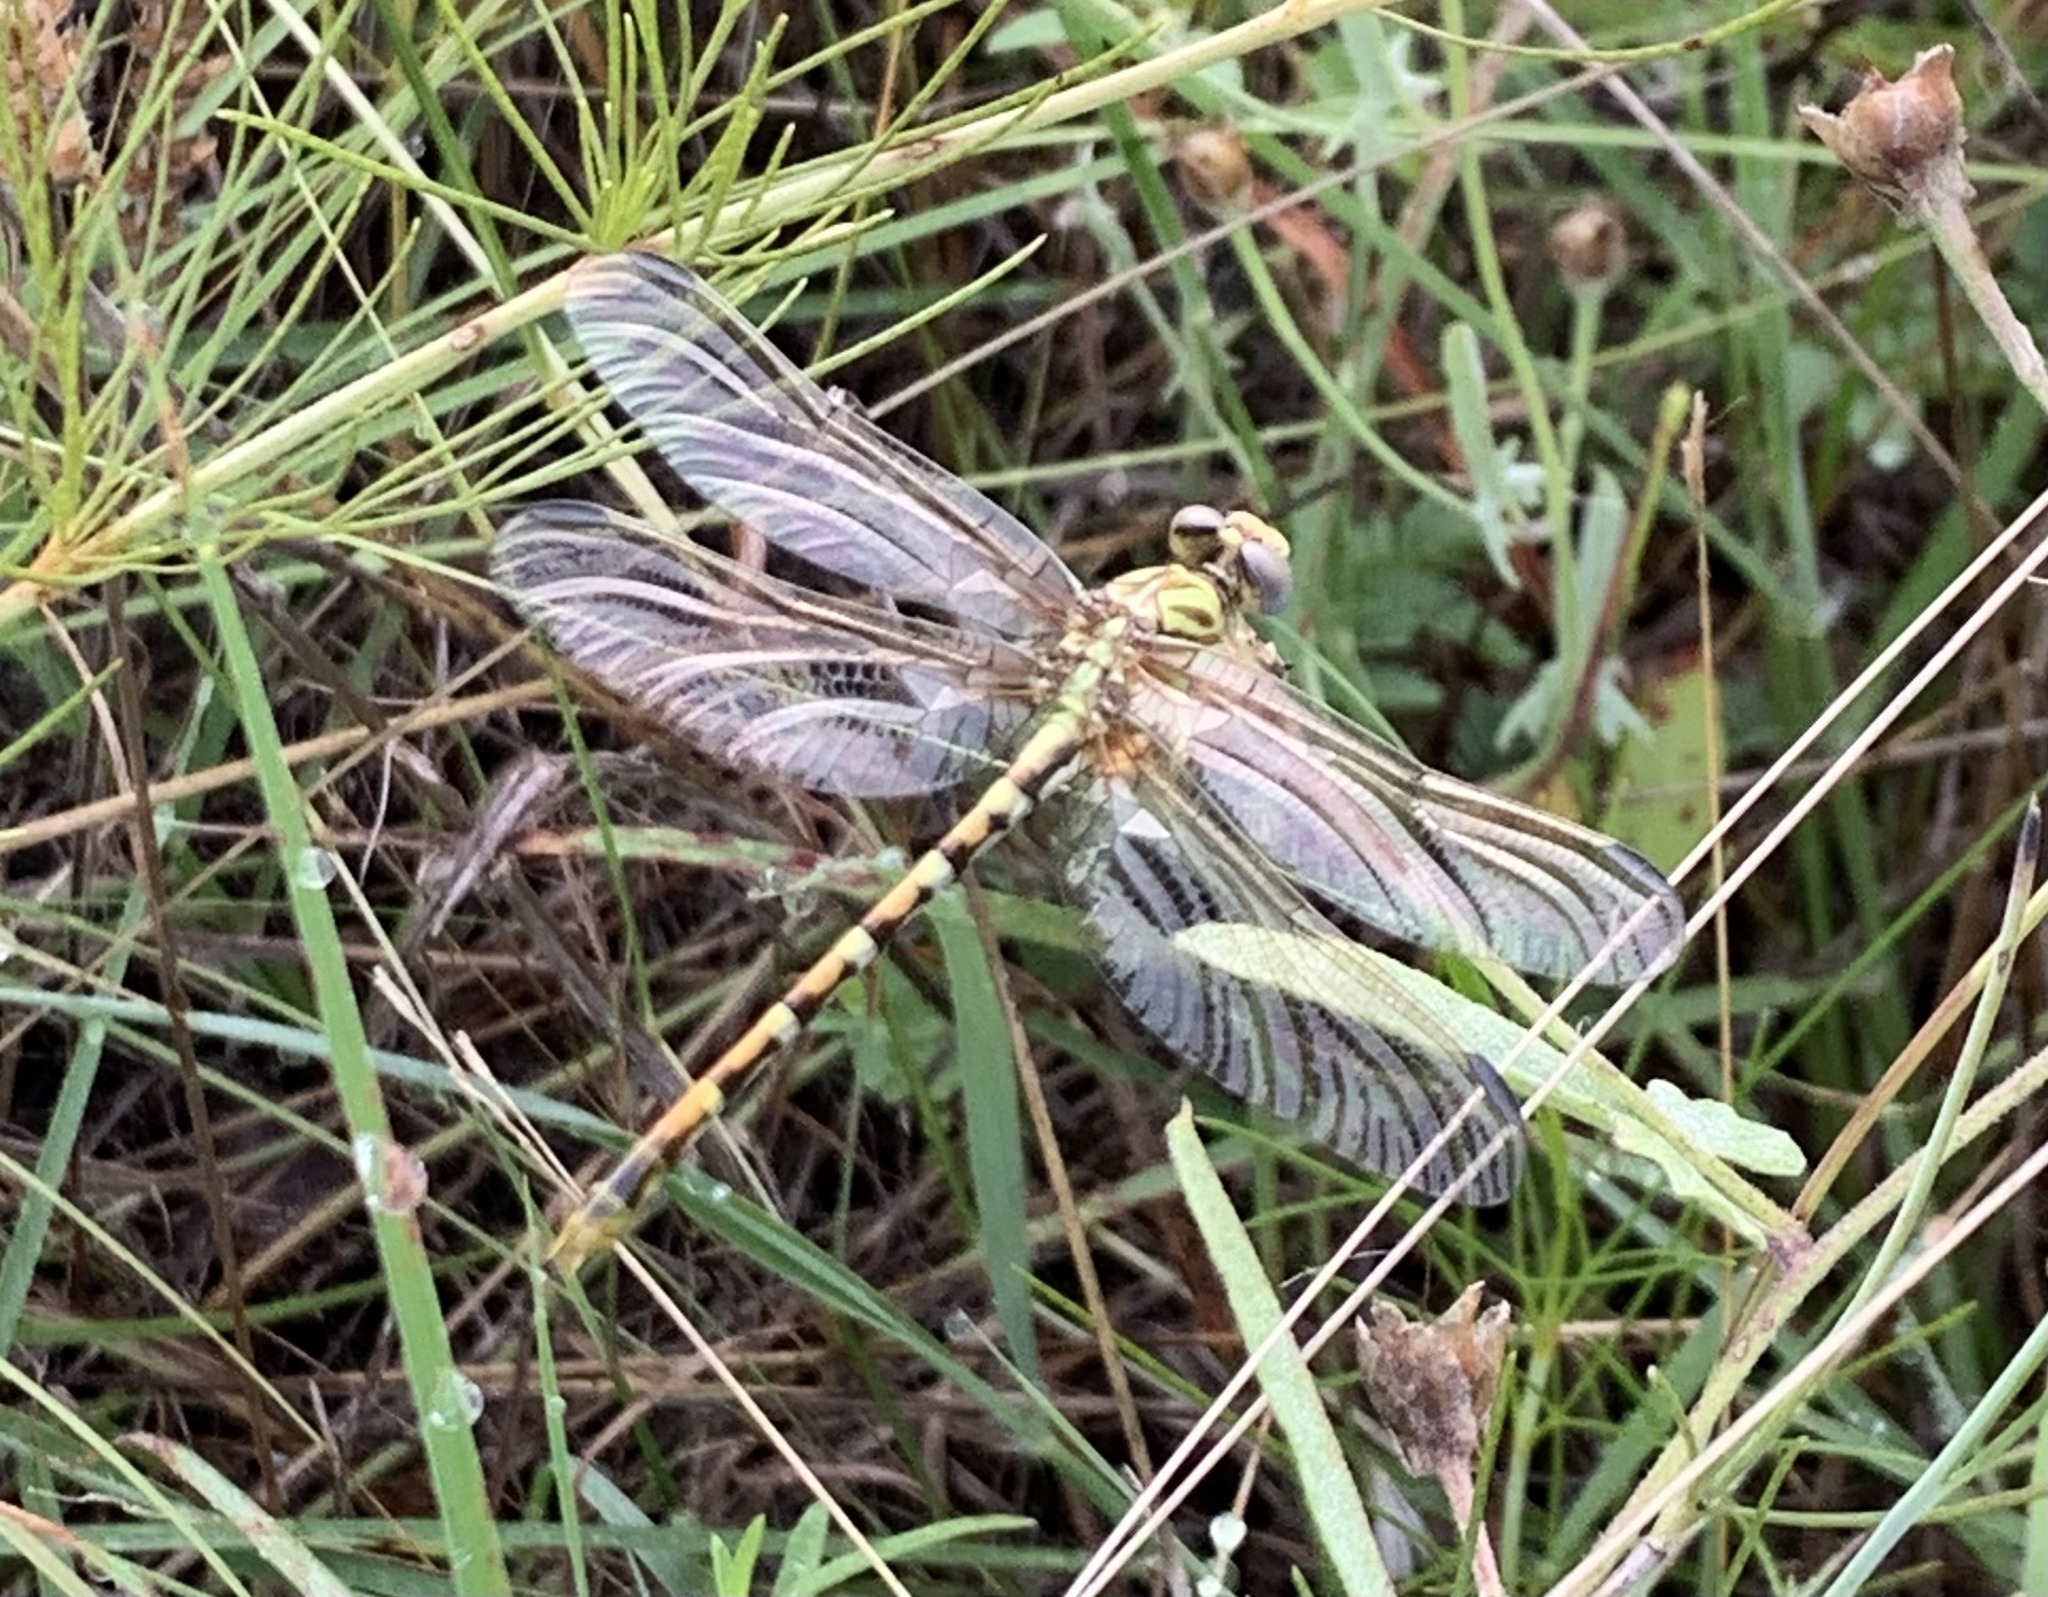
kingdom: Animalia
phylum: Arthropoda
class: Insecta
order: Odonata
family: Gomphidae
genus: Erpetogomphus
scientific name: Erpetogomphus designatus
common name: Eastern ringtail
